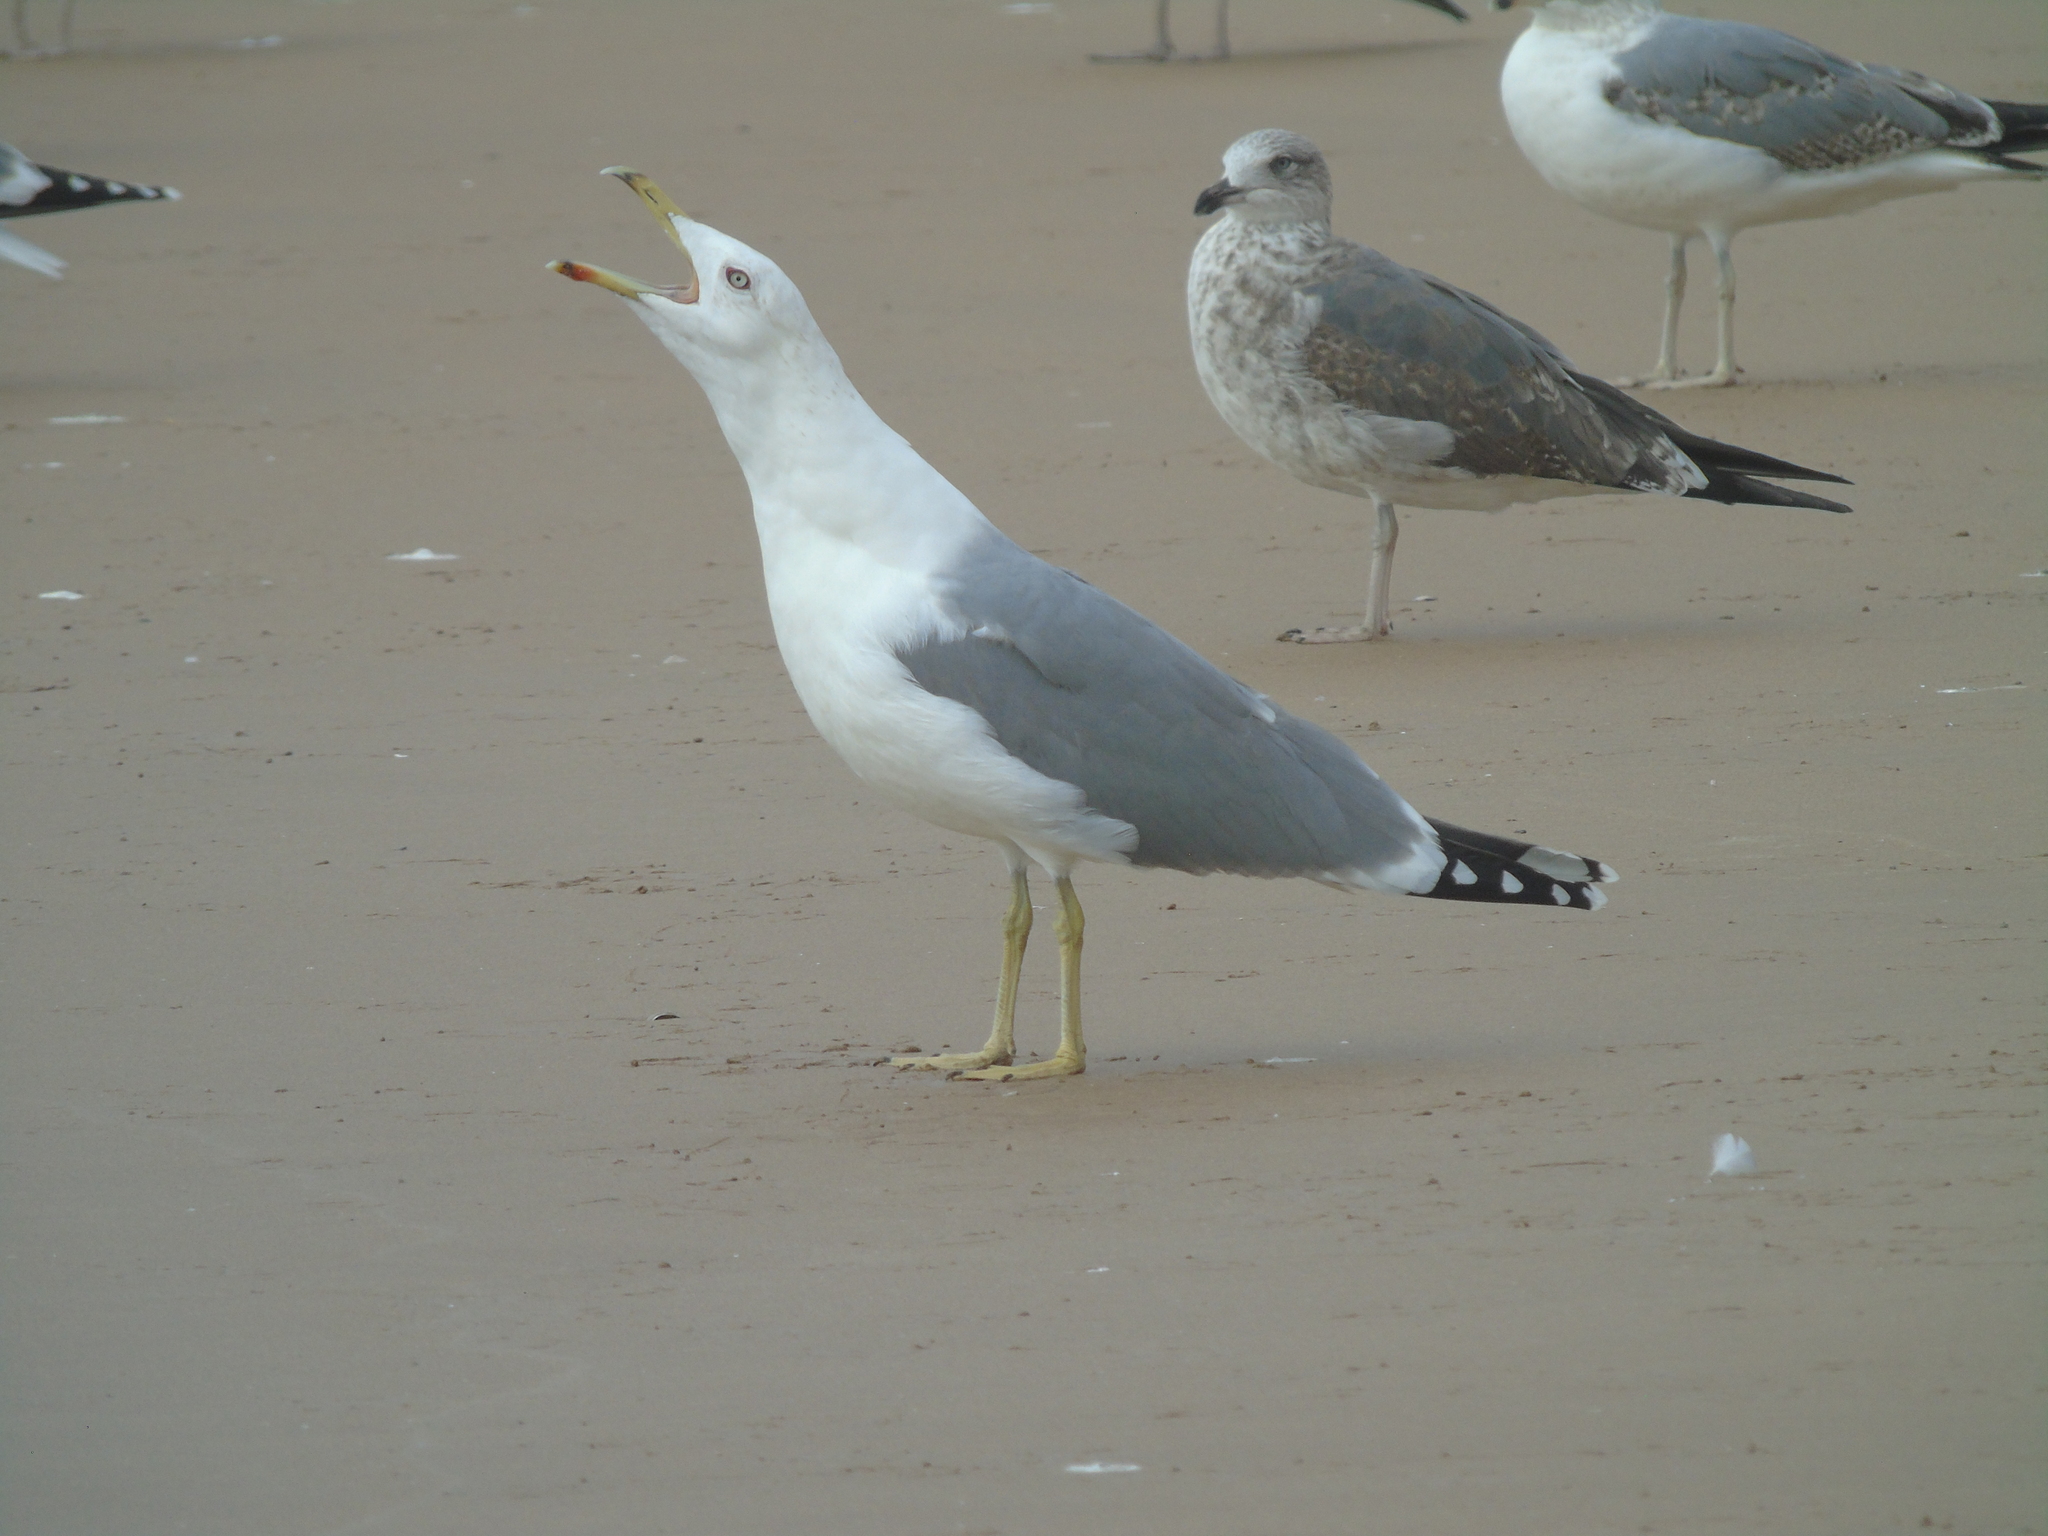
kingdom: Animalia
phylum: Chordata
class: Aves
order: Charadriiformes
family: Laridae
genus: Larus
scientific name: Larus michahellis
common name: Yellow-legged gull
